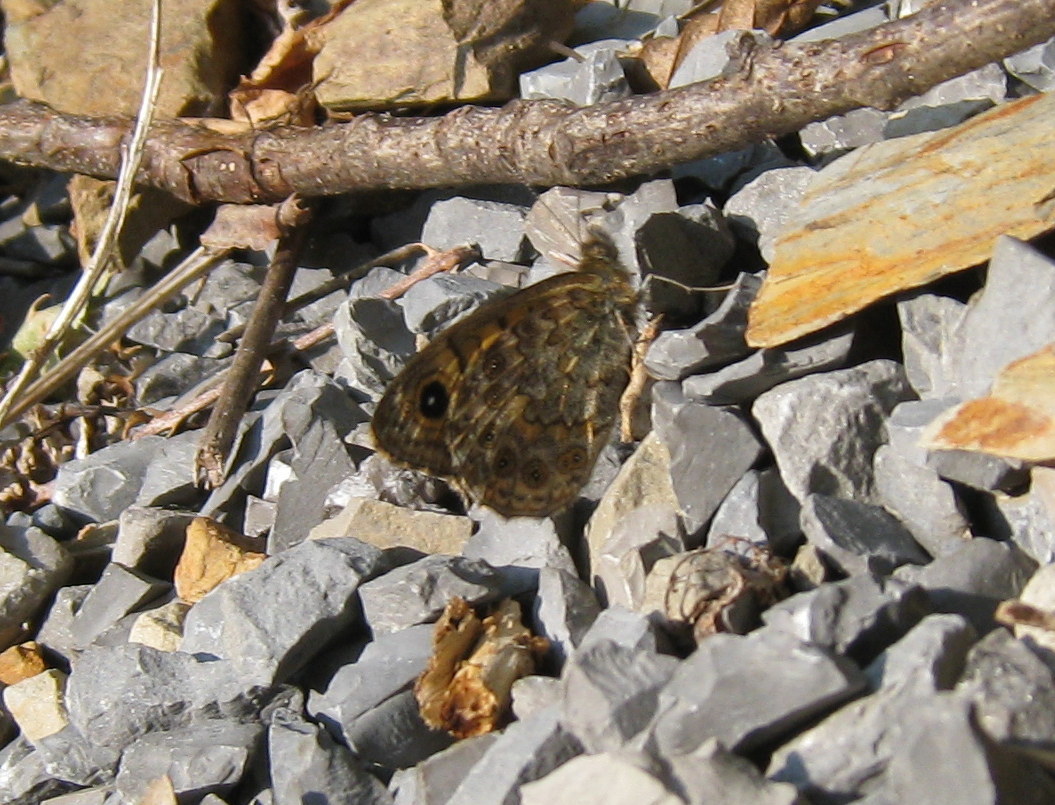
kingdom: Animalia
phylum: Arthropoda
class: Insecta
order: Lepidoptera
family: Nymphalidae
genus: Pararge
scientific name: Pararge Lasiommata megera
